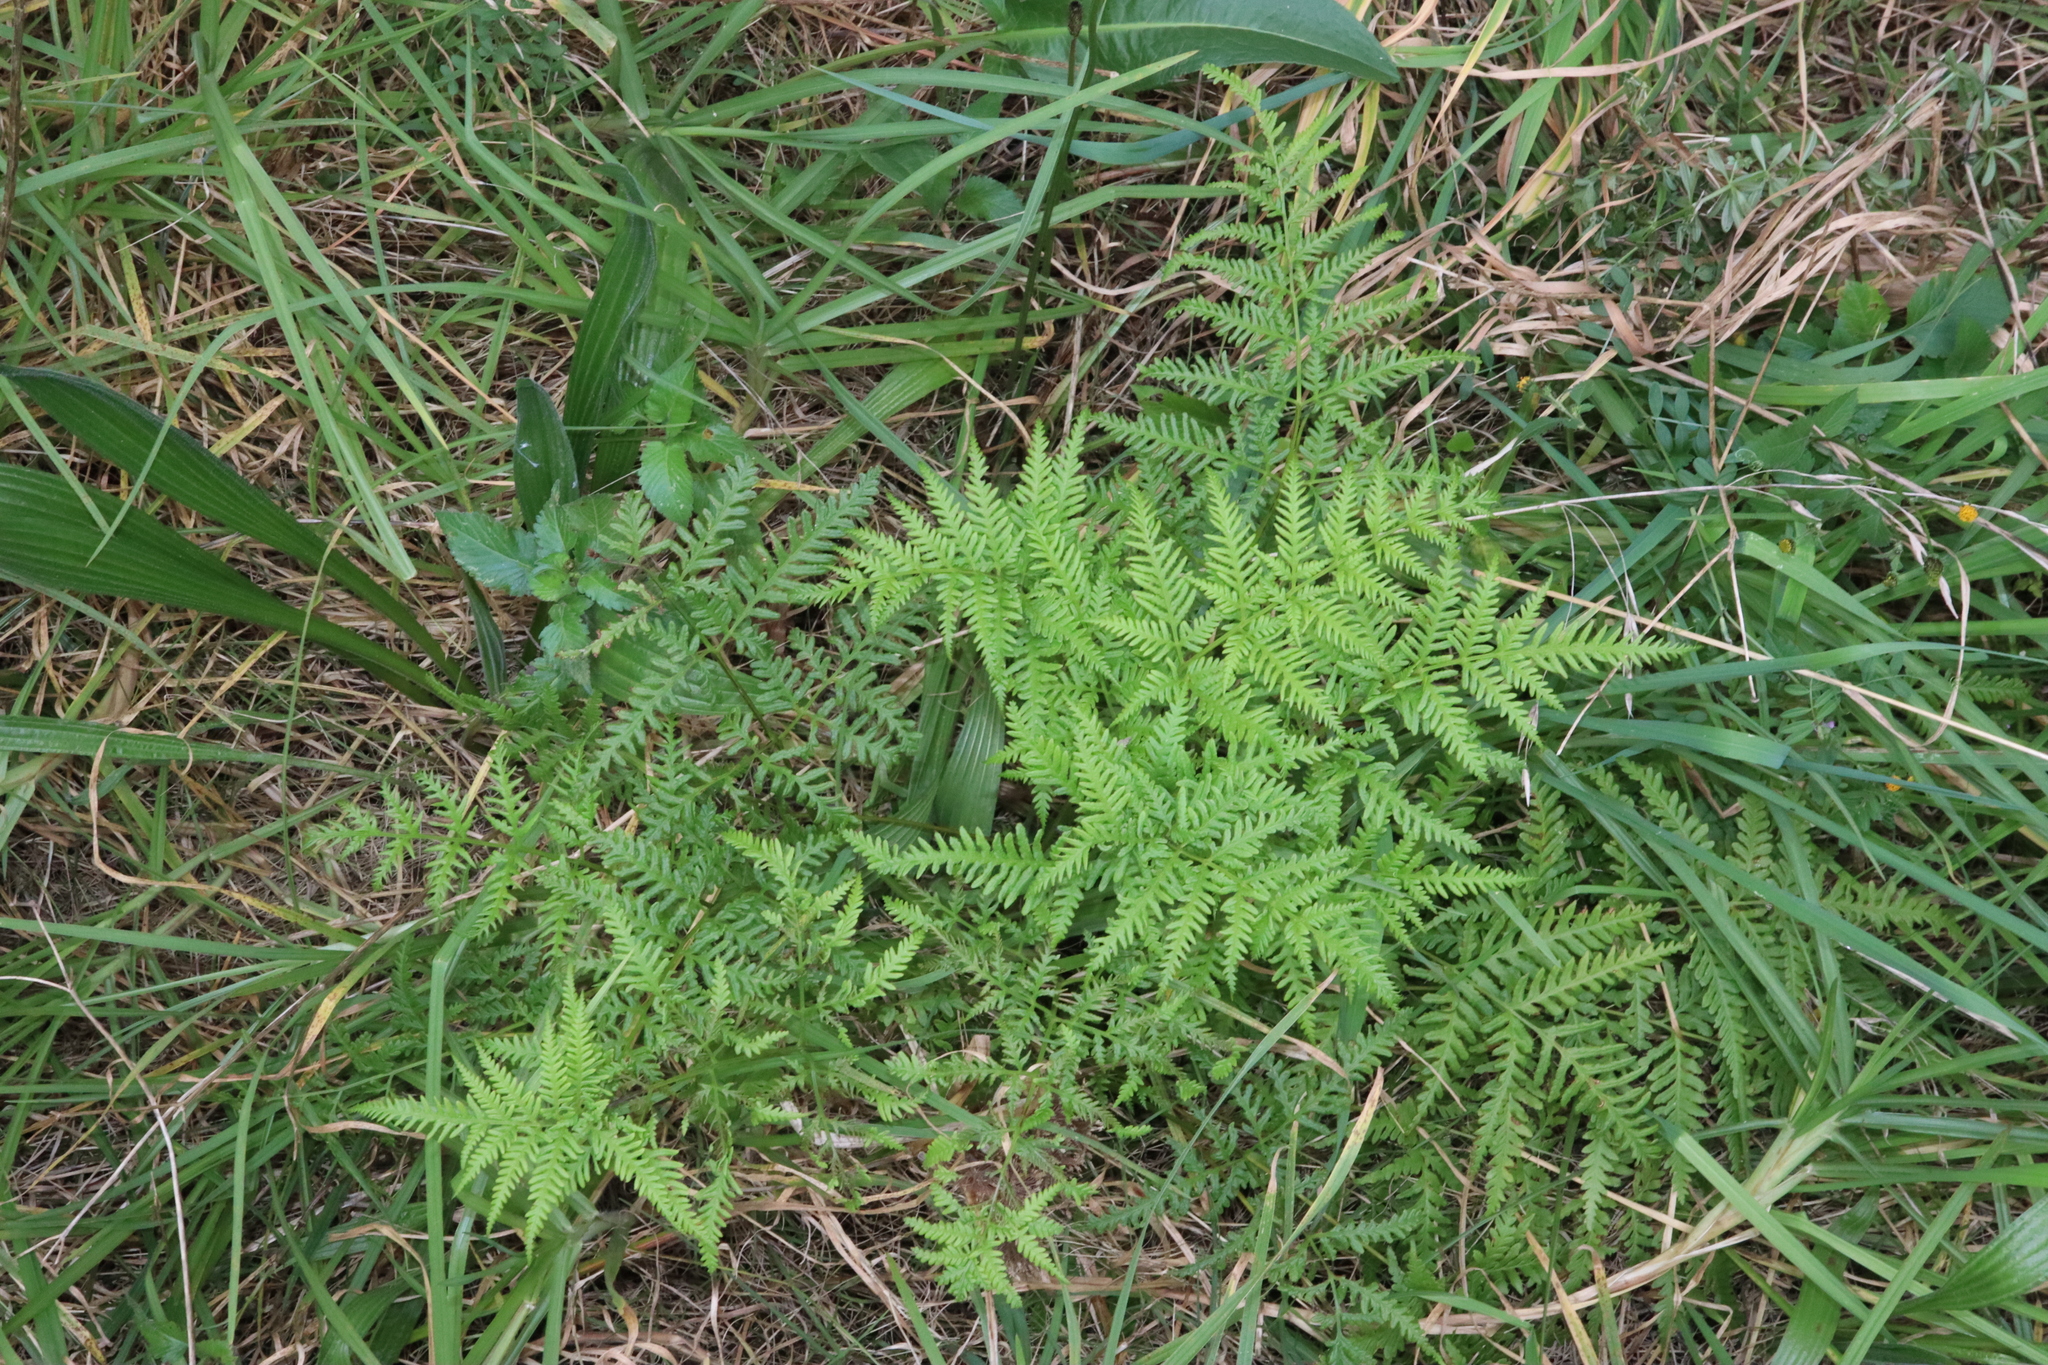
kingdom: Plantae
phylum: Tracheophyta
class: Polypodiopsida
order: Polypodiales
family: Pteridaceae
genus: Pteris
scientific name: Pteris tremula
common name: Australian brake
